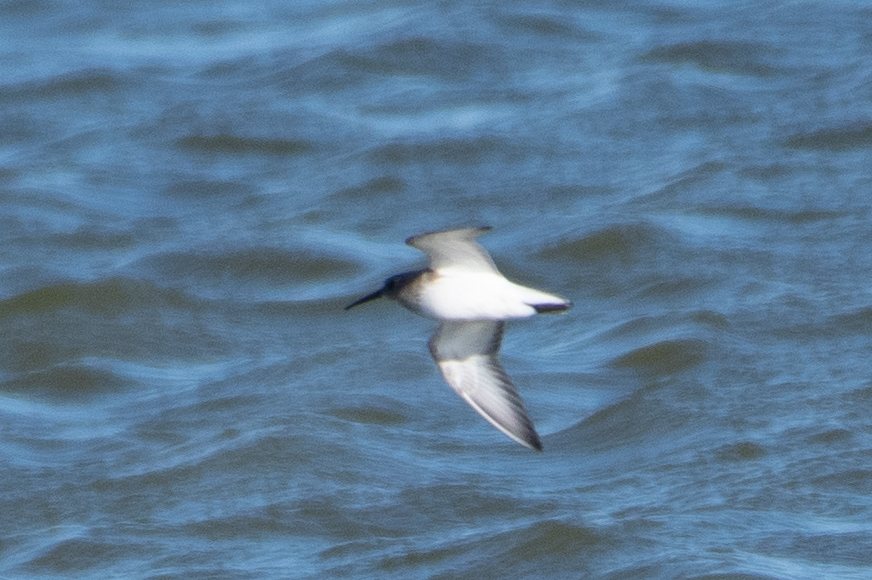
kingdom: Animalia
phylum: Chordata
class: Aves
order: Charadriiformes
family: Scolopacidae
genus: Calidris
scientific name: Calidris alpina
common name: Dunlin
